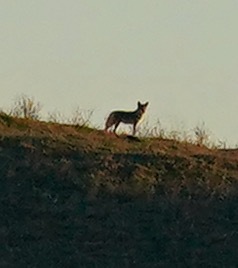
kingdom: Animalia
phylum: Chordata
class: Mammalia
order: Carnivora
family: Canidae
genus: Canis
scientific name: Canis latrans
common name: Coyote
